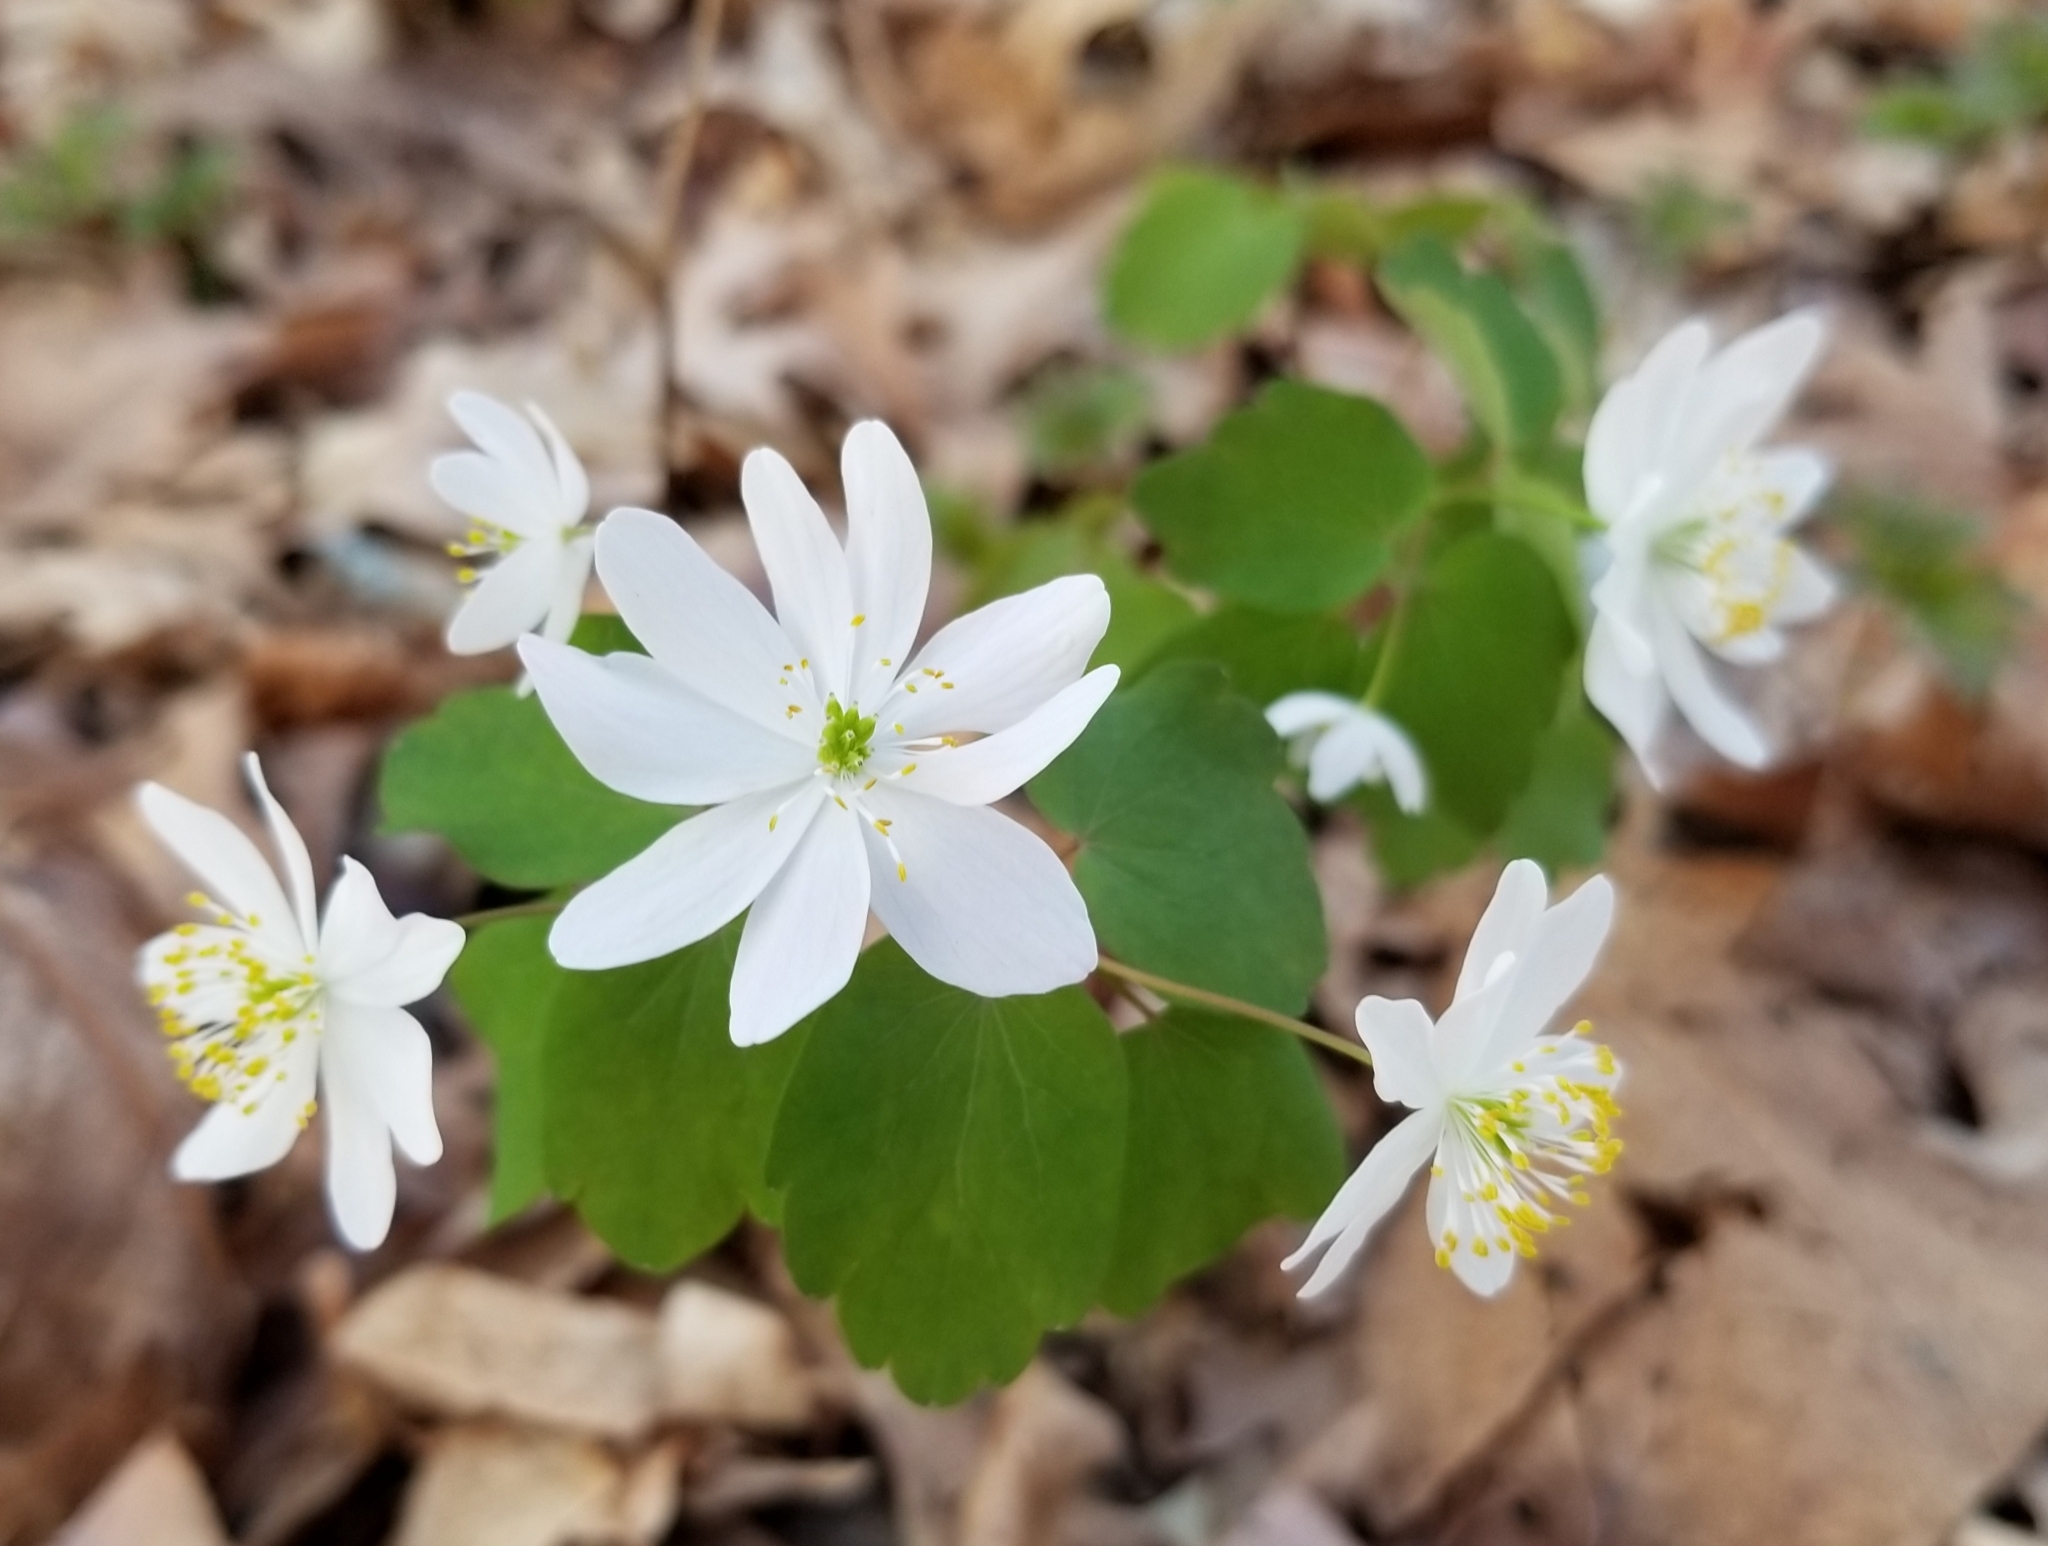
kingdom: Plantae
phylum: Tracheophyta
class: Magnoliopsida
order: Ranunculales
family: Ranunculaceae
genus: Thalictrum
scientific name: Thalictrum thalictroides
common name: Rue-anemone
